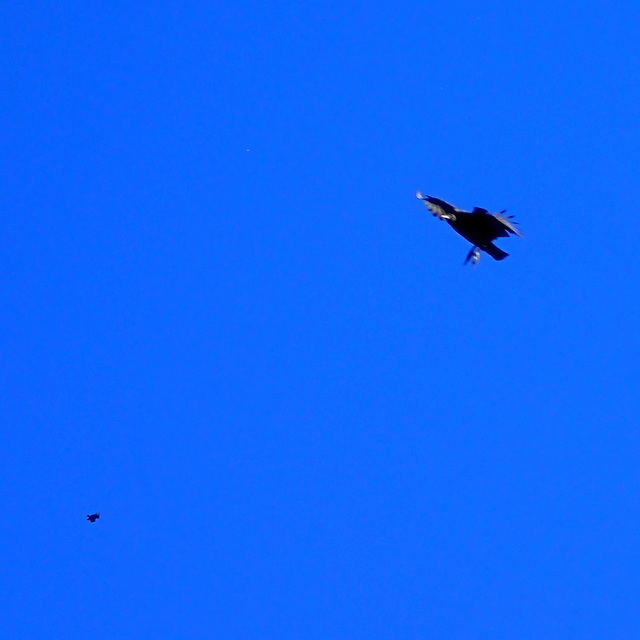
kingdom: Animalia
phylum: Chordata
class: Aves
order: Accipitriformes
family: Cathartidae
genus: Coragyps
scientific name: Coragyps atratus
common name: Black vulture
